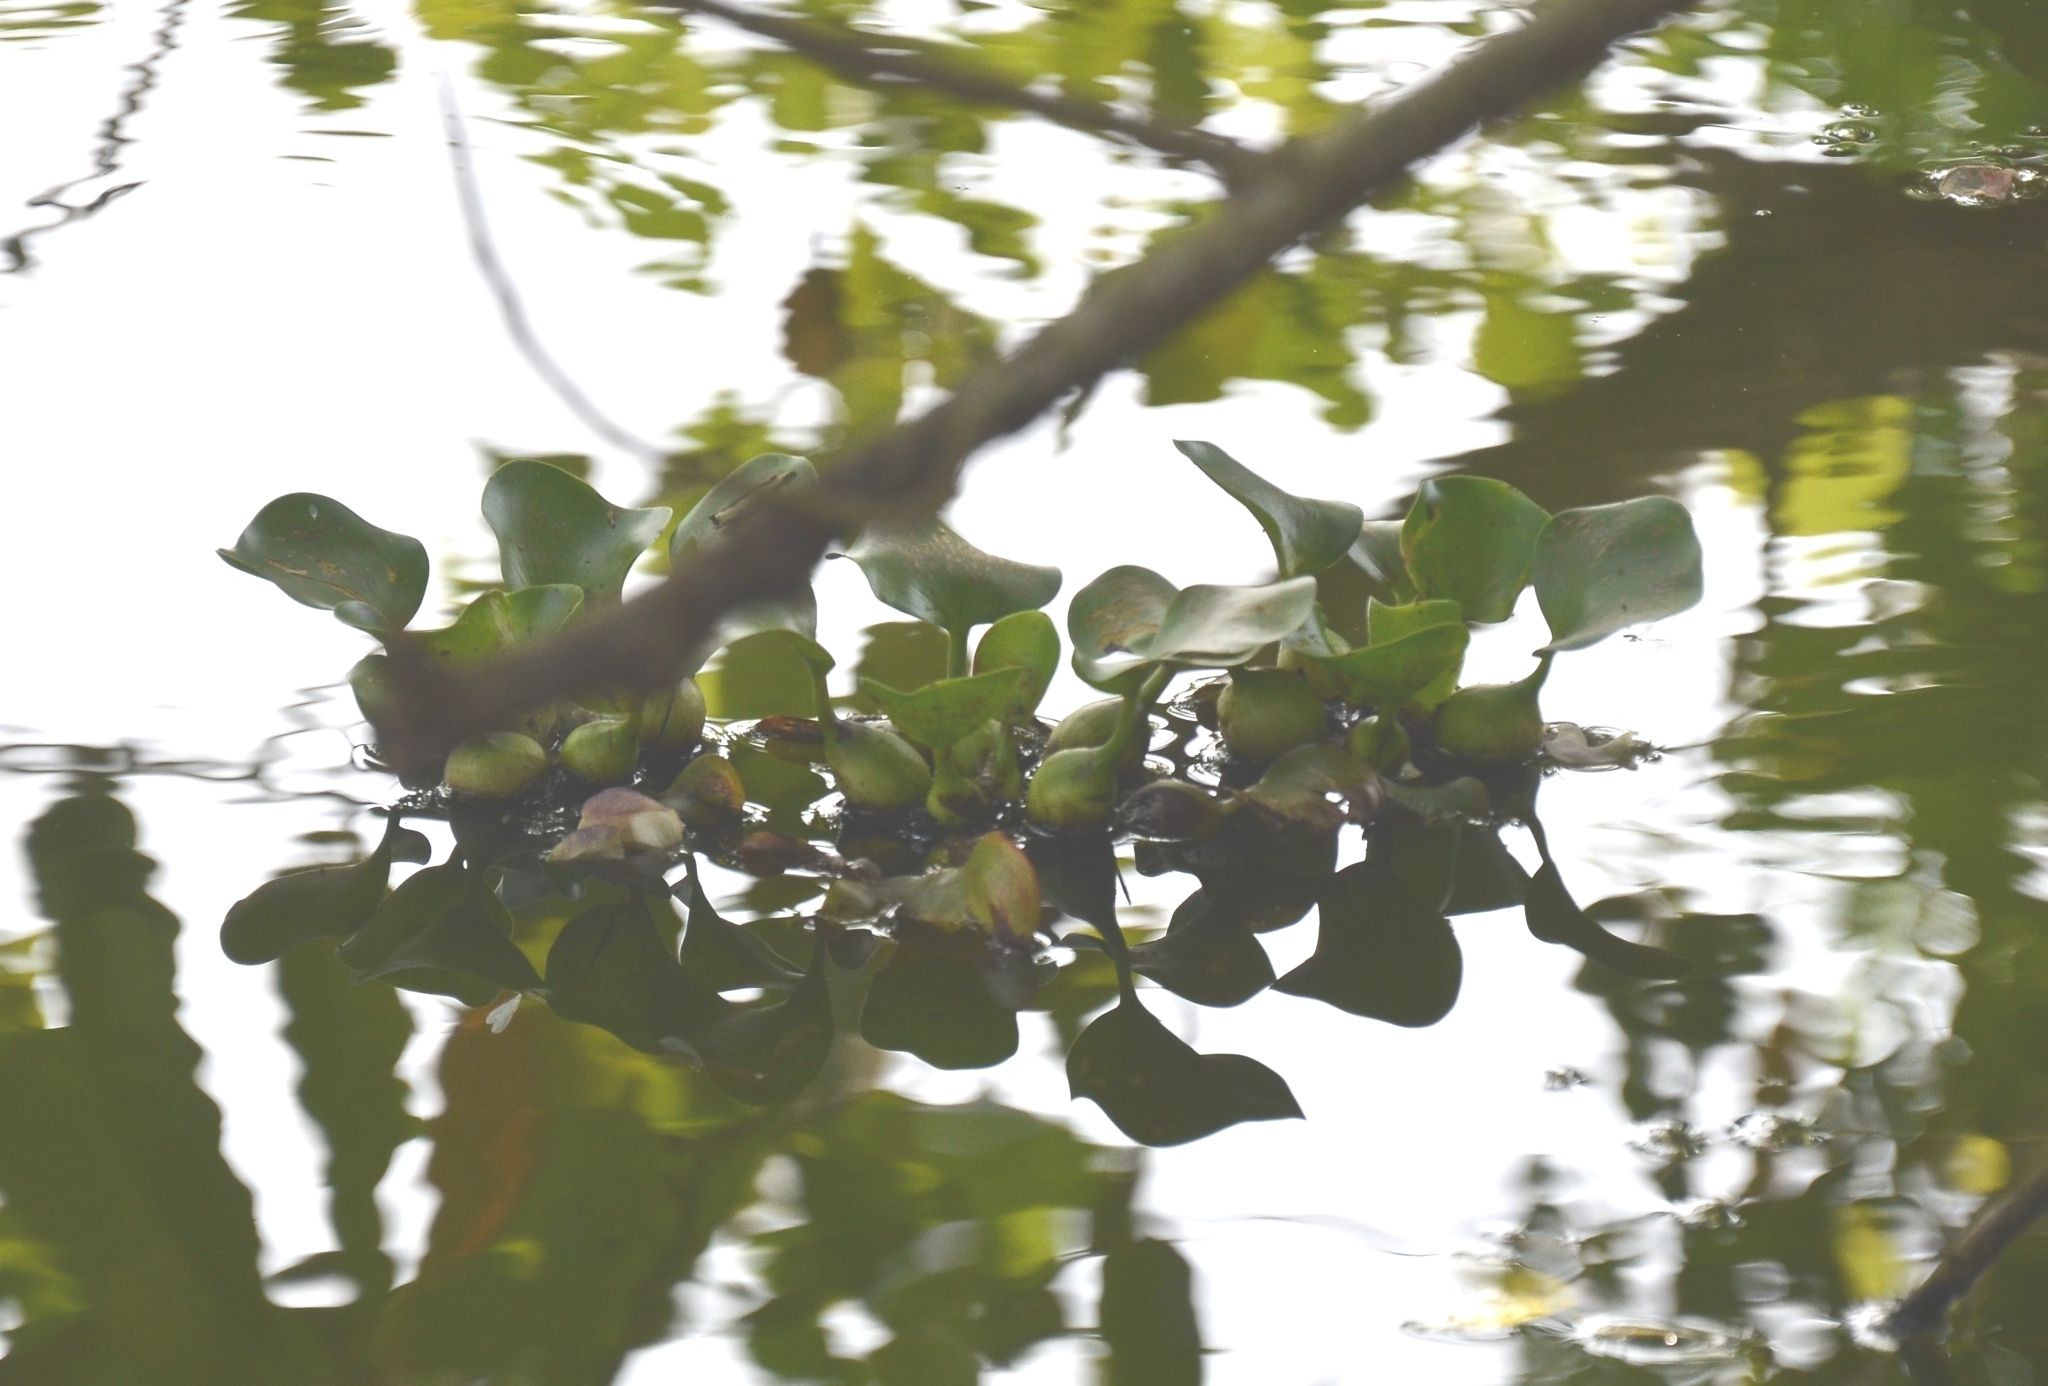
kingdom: Plantae
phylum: Tracheophyta
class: Liliopsida
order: Commelinales
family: Pontederiaceae
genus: Pontederia
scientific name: Pontederia crassipes
